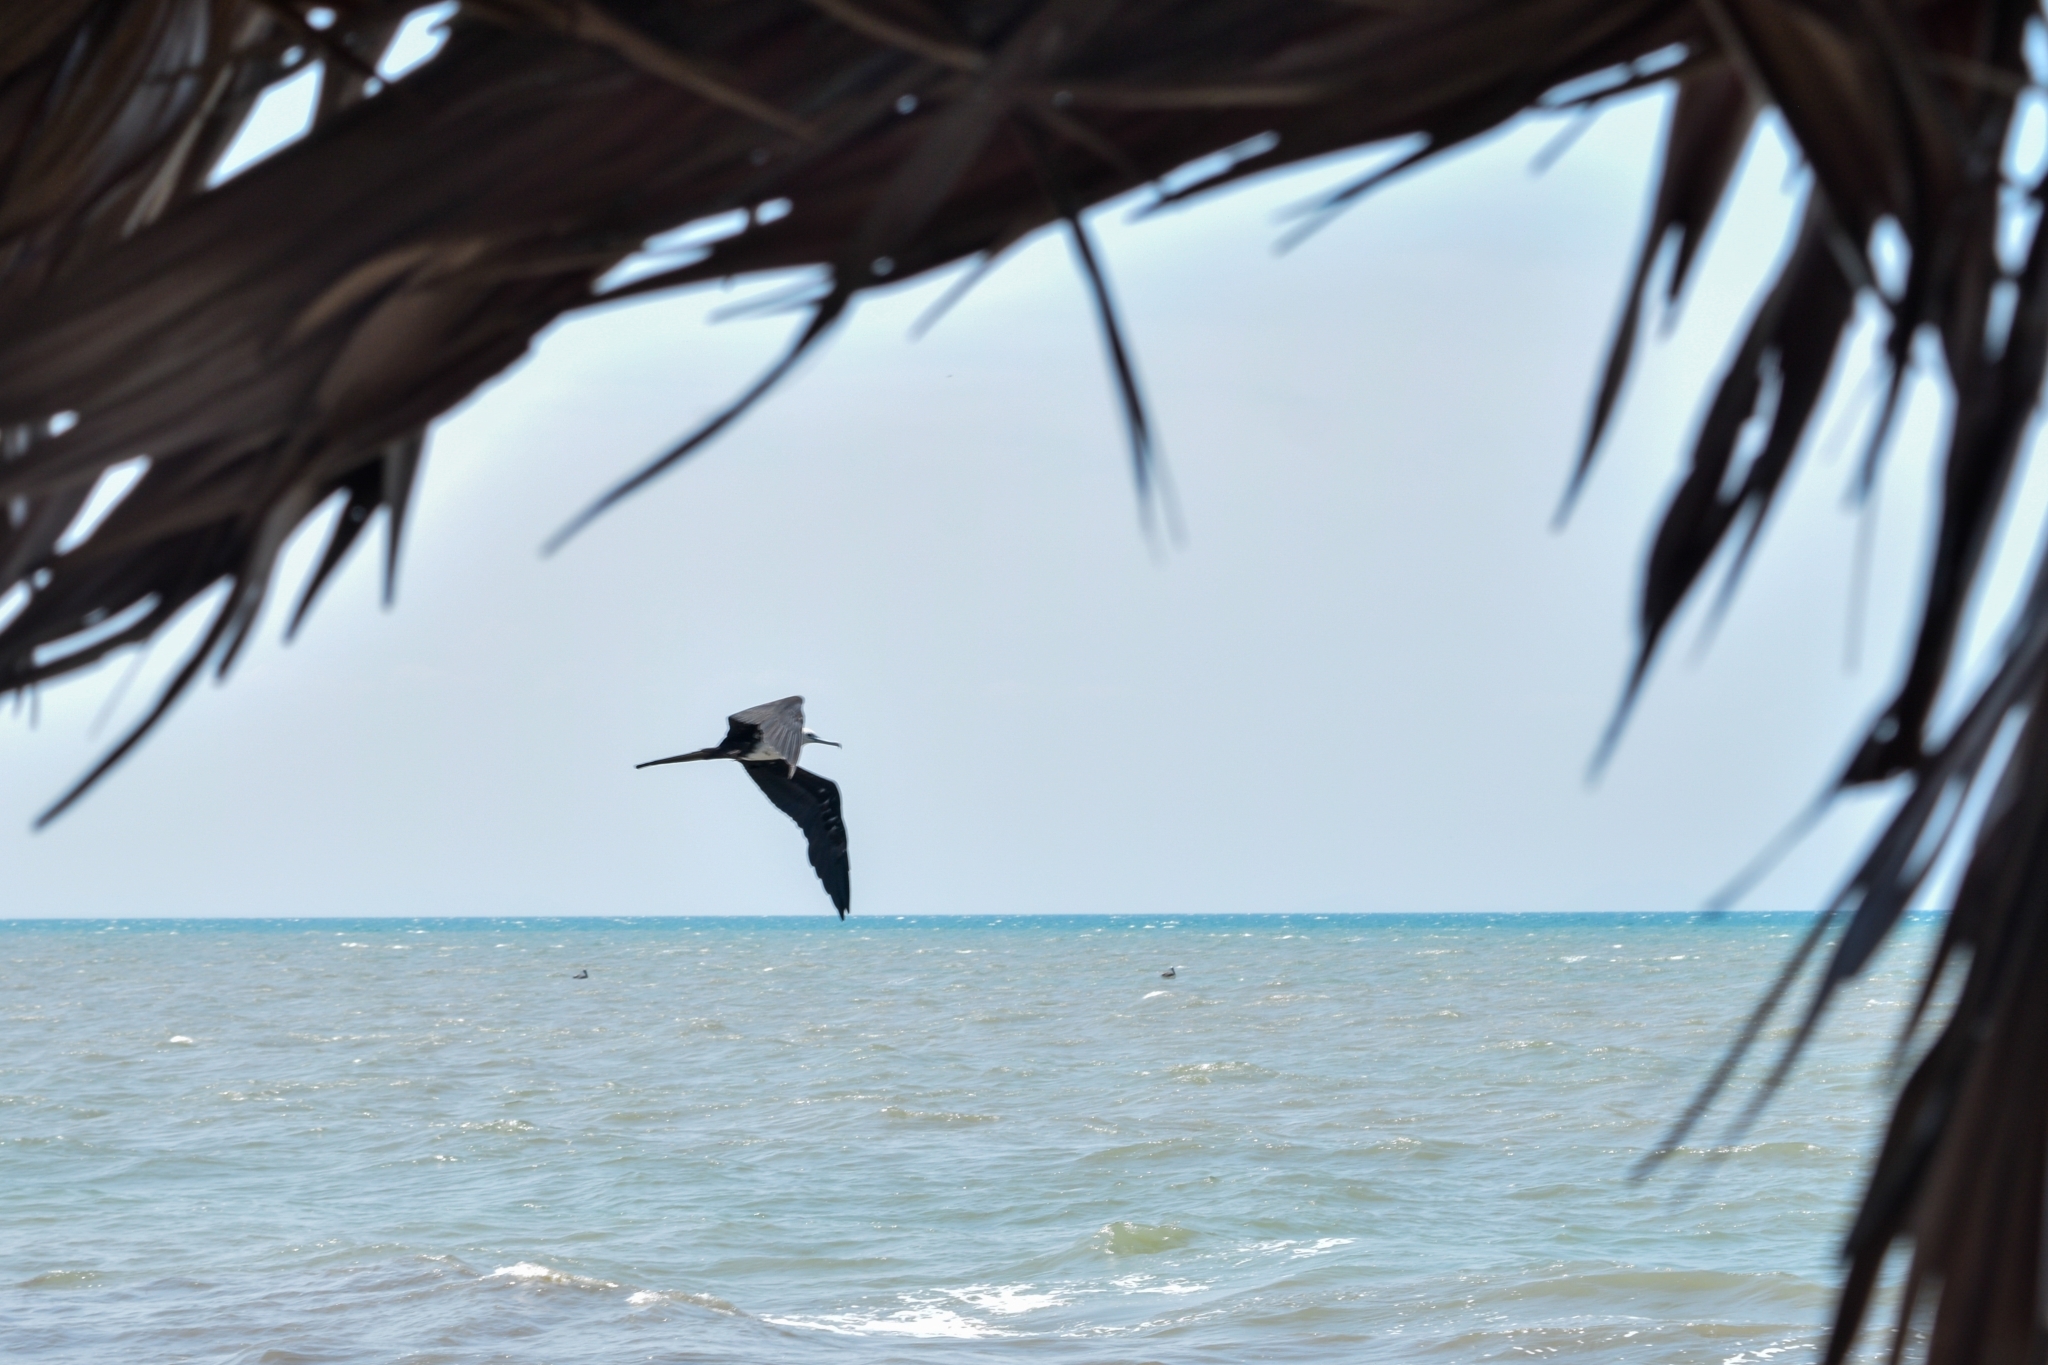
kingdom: Animalia
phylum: Chordata
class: Aves
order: Suliformes
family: Fregatidae
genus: Fregata
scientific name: Fregata magnificens
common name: Magnificent frigatebird
